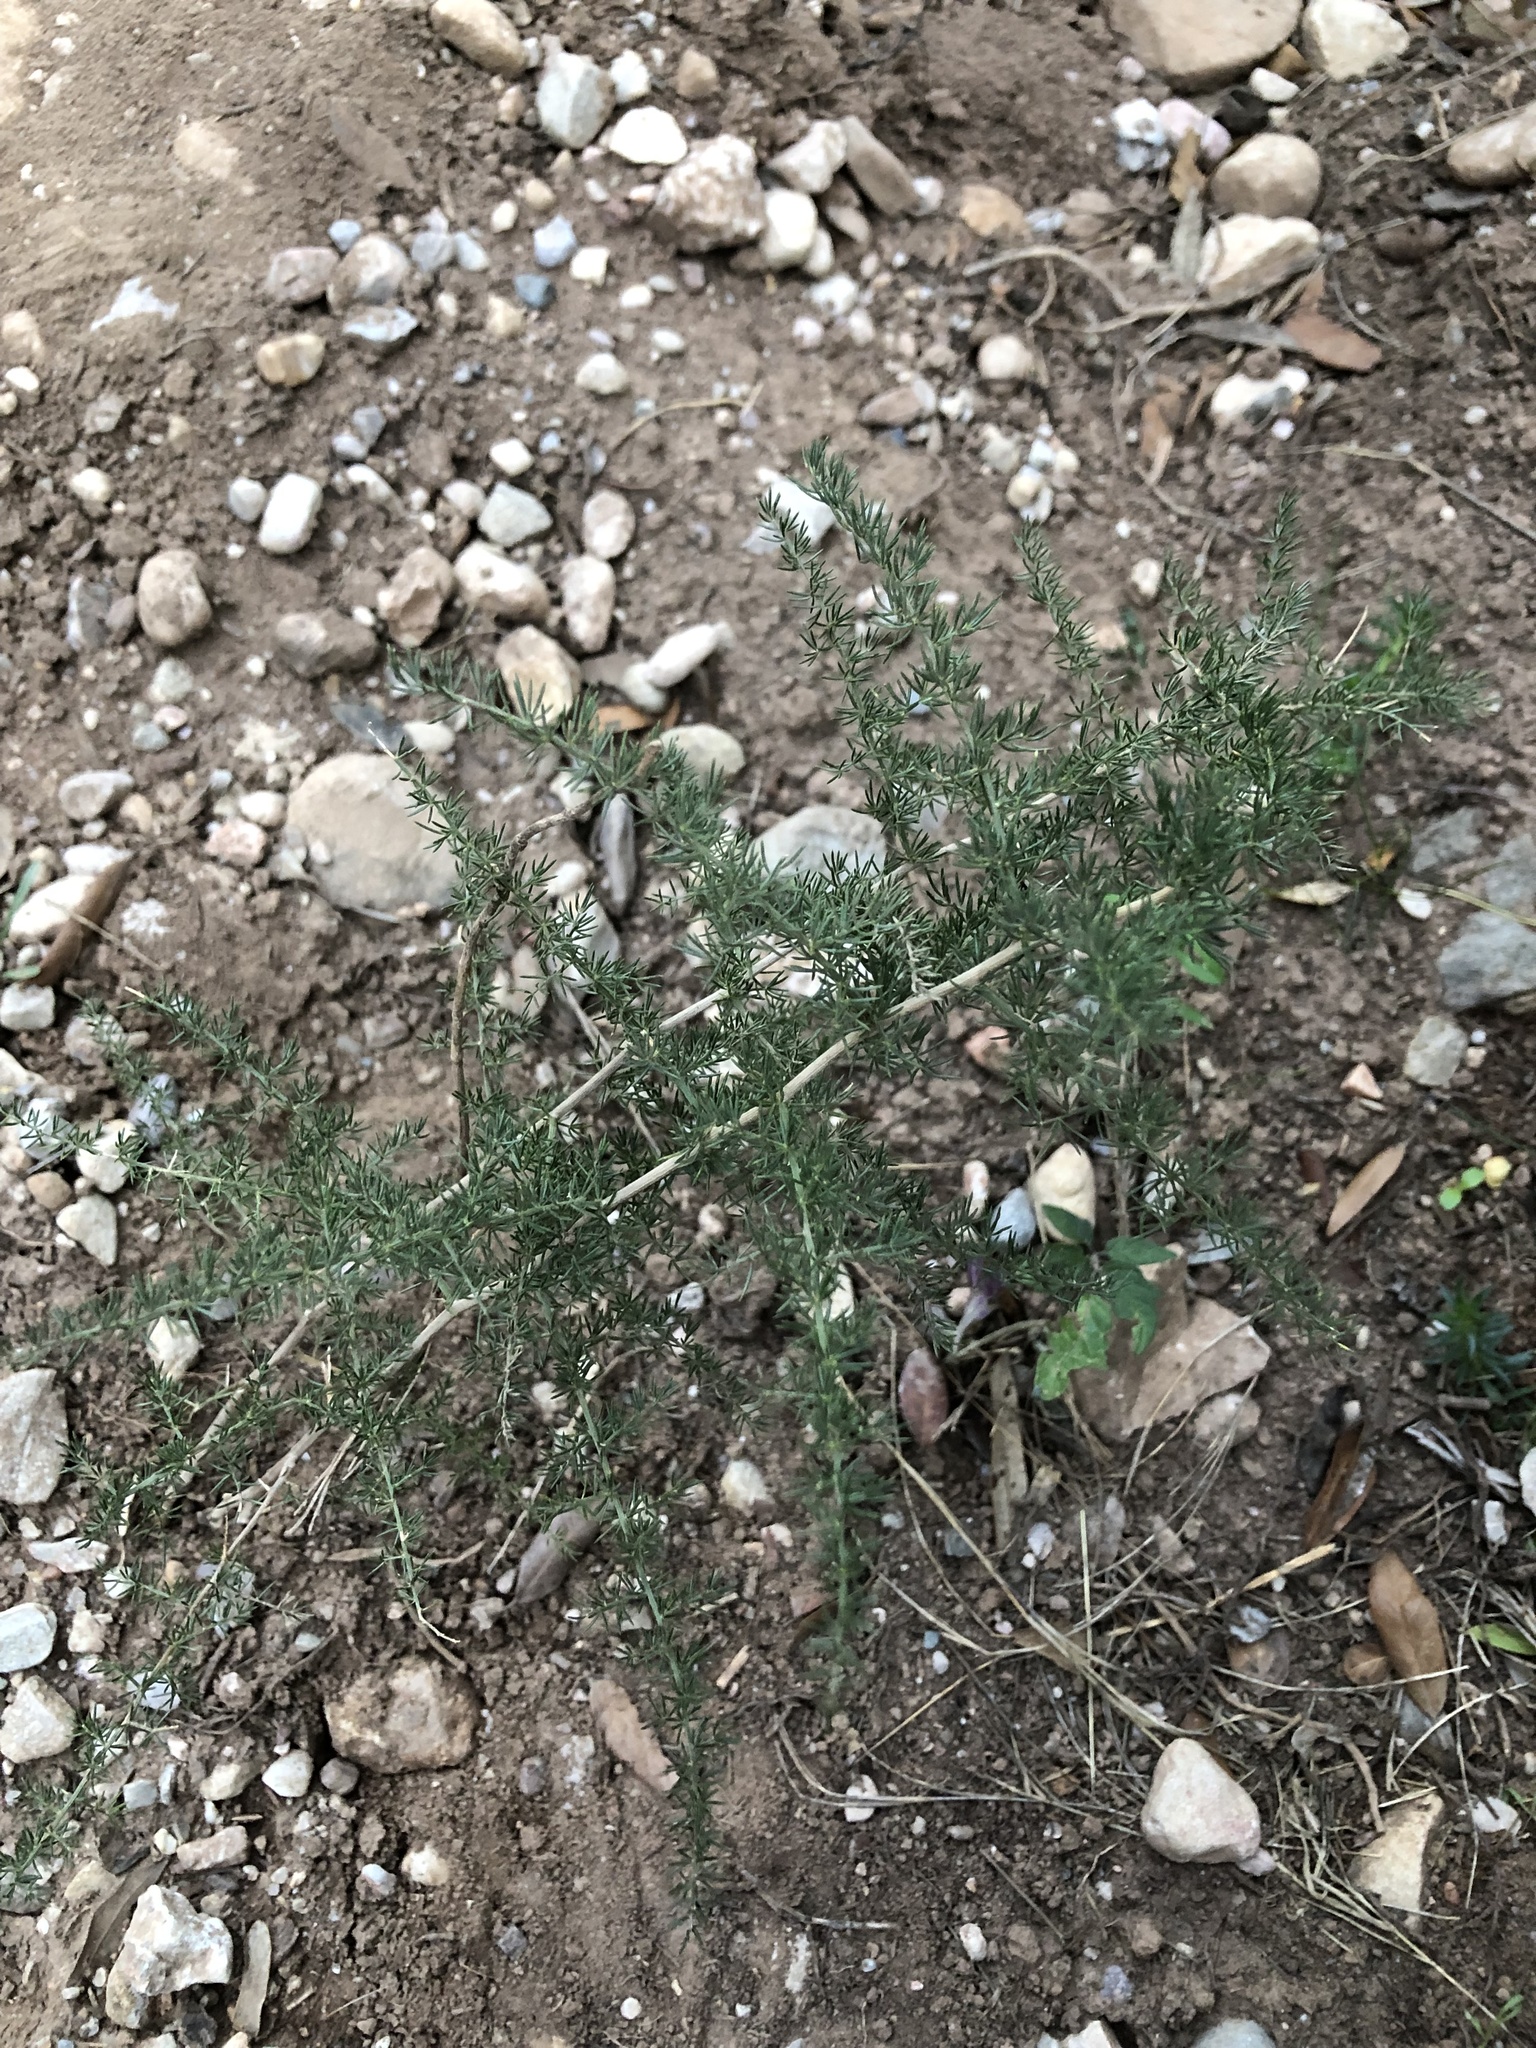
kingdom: Plantae
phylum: Tracheophyta
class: Liliopsida
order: Asparagales
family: Asparagaceae
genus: Asparagus
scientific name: Asparagus acutifolius
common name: Wild asparagus
